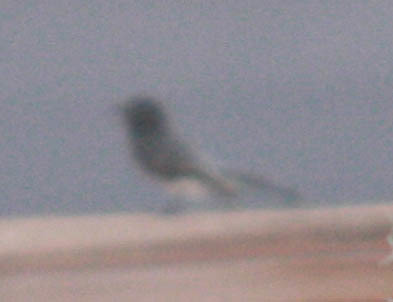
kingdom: Animalia
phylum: Chordata
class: Aves
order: Passeriformes
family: Tyrannidae
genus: Sayornis
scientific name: Sayornis nigricans
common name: Black phoebe
